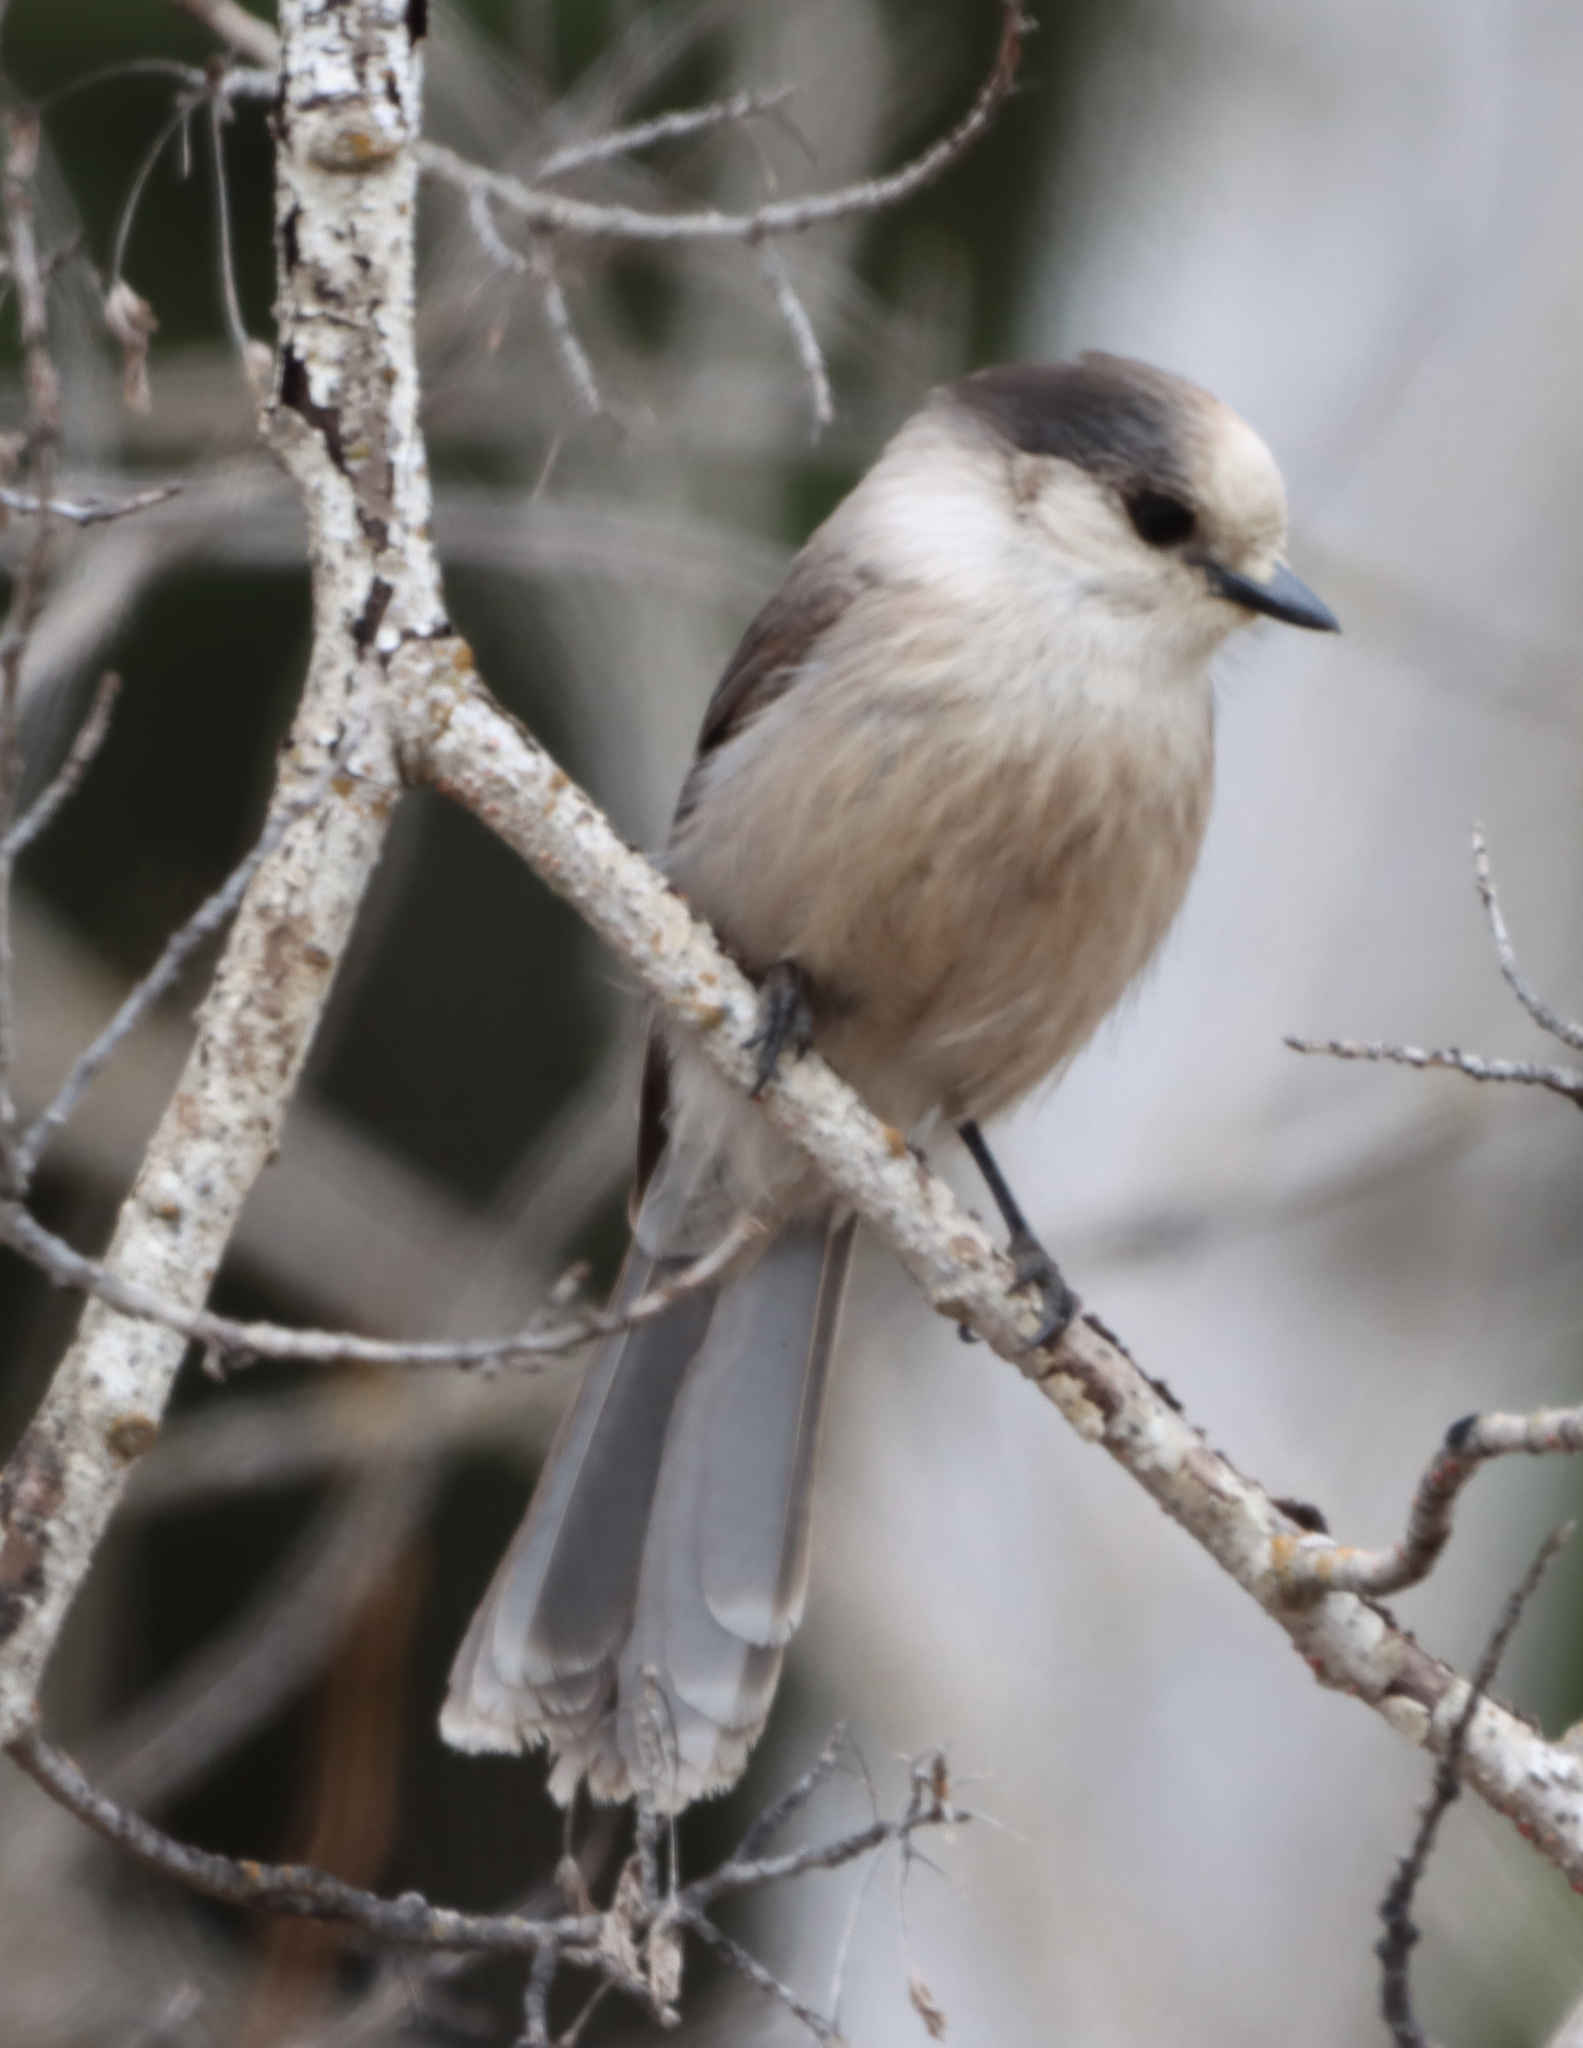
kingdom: Animalia
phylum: Chordata
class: Aves
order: Passeriformes
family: Corvidae
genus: Perisoreus
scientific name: Perisoreus canadensis
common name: Gray jay
